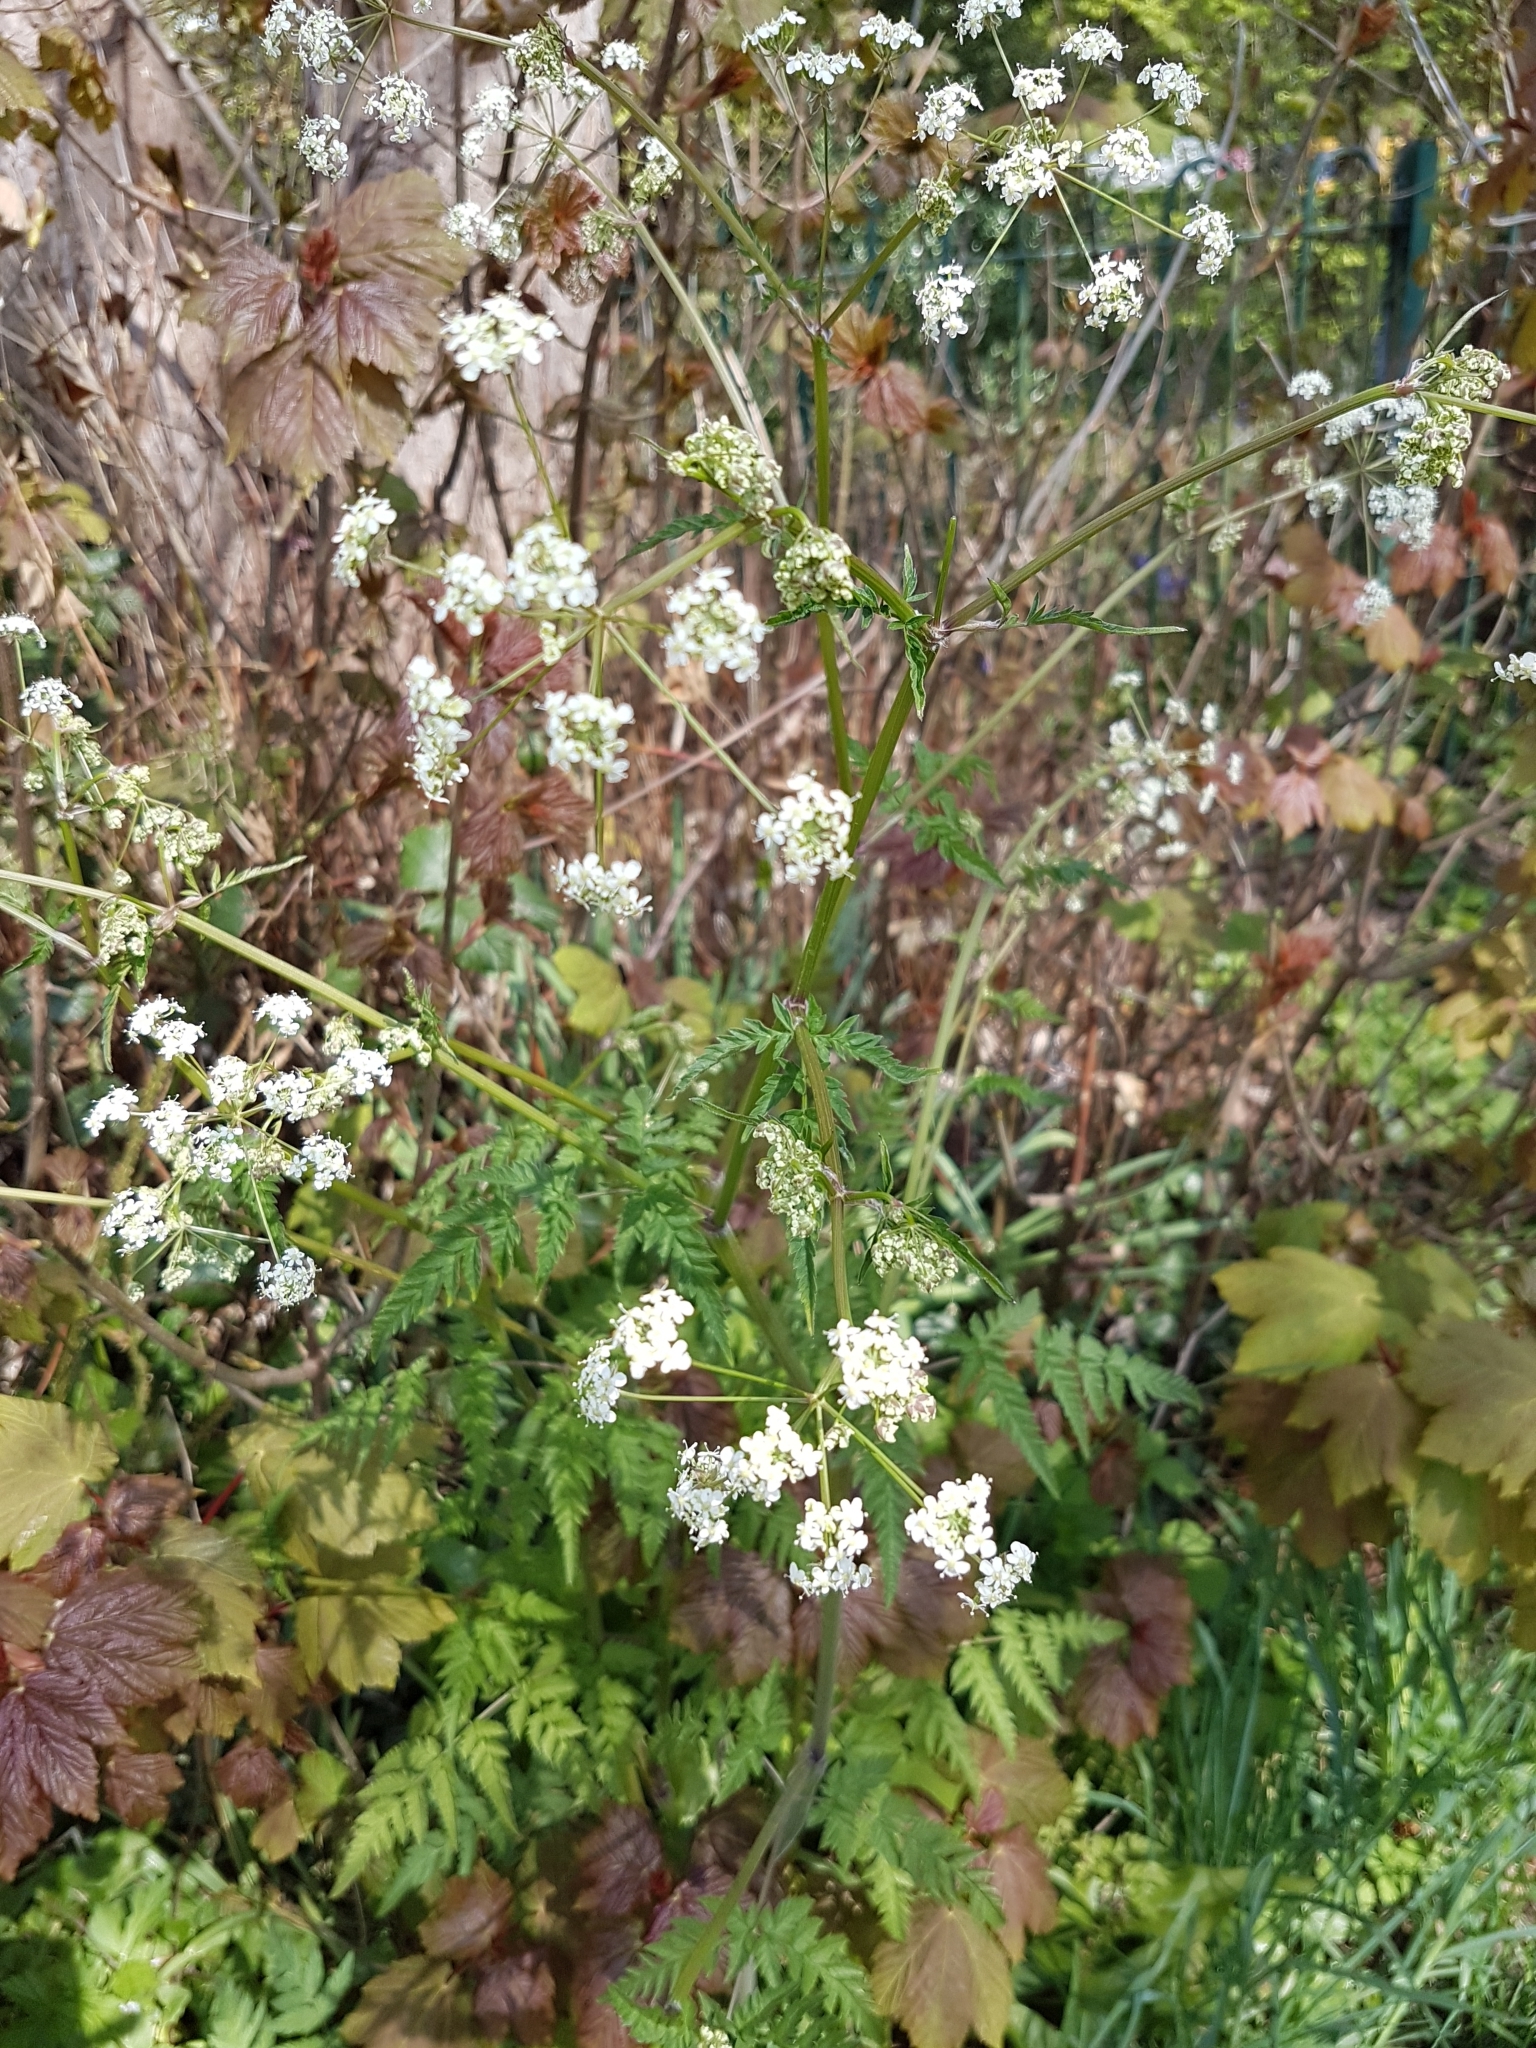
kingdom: Plantae
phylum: Tracheophyta
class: Magnoliopsida
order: Apiales
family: Apiaceae
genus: Anthriscus
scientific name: Anthriscus sylvestris
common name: Cow parsley
